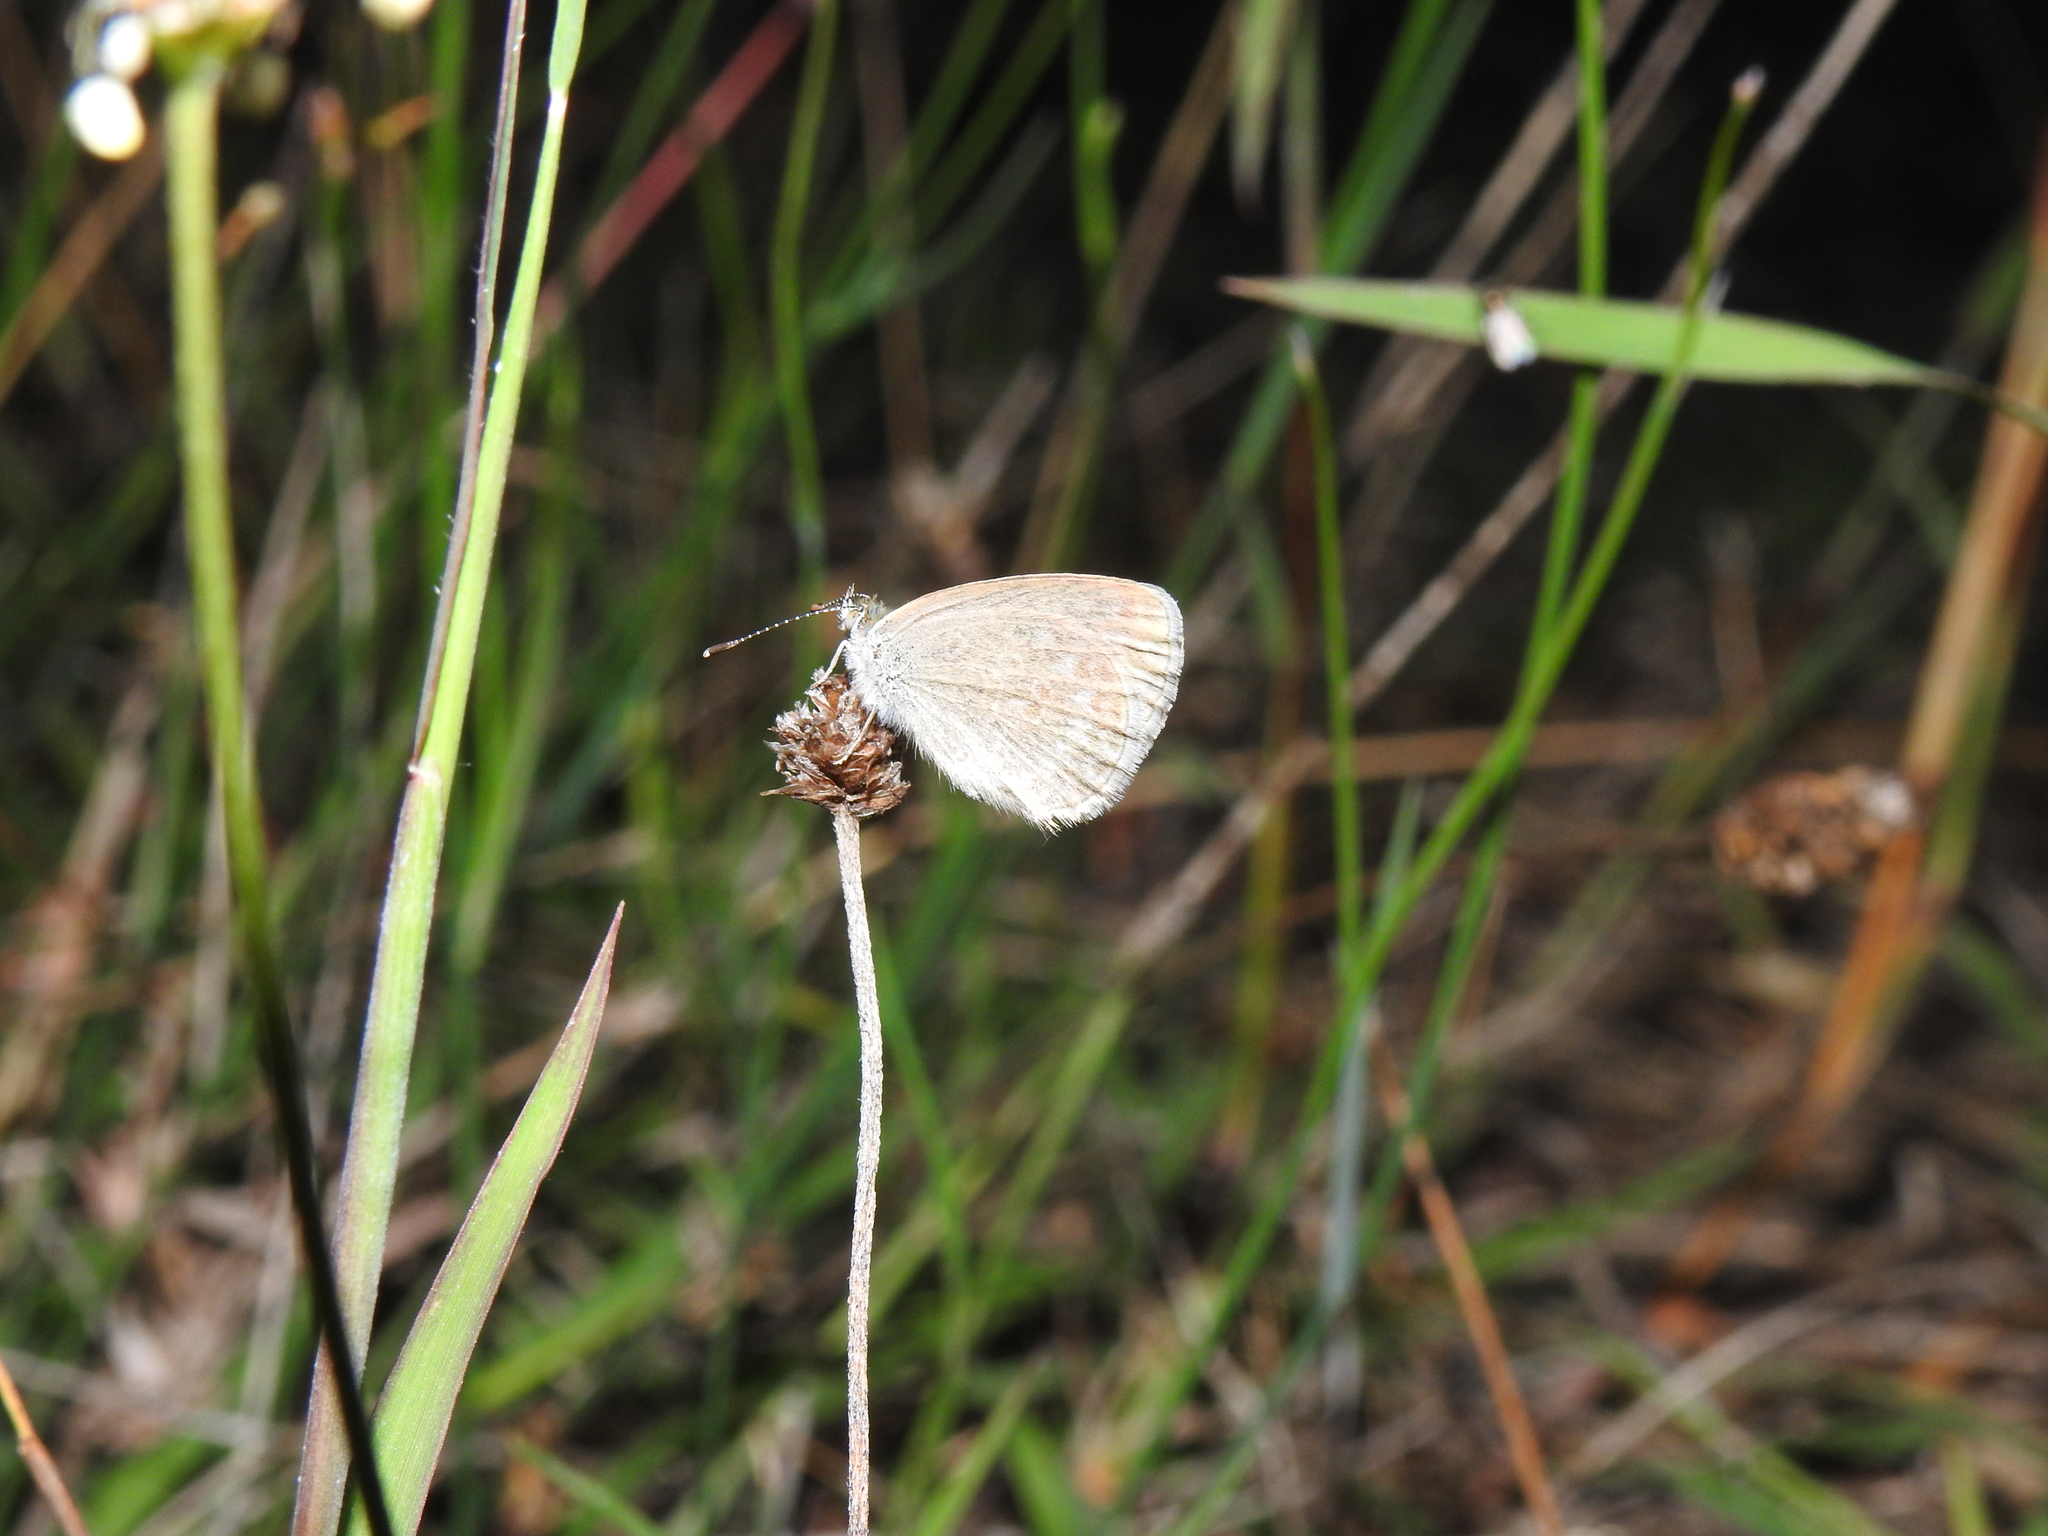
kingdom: Animalia
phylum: Arthropoda
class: Insecta
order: Lepidoptera
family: Lycaenidae
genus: Zizina
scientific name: Zizina labradus
